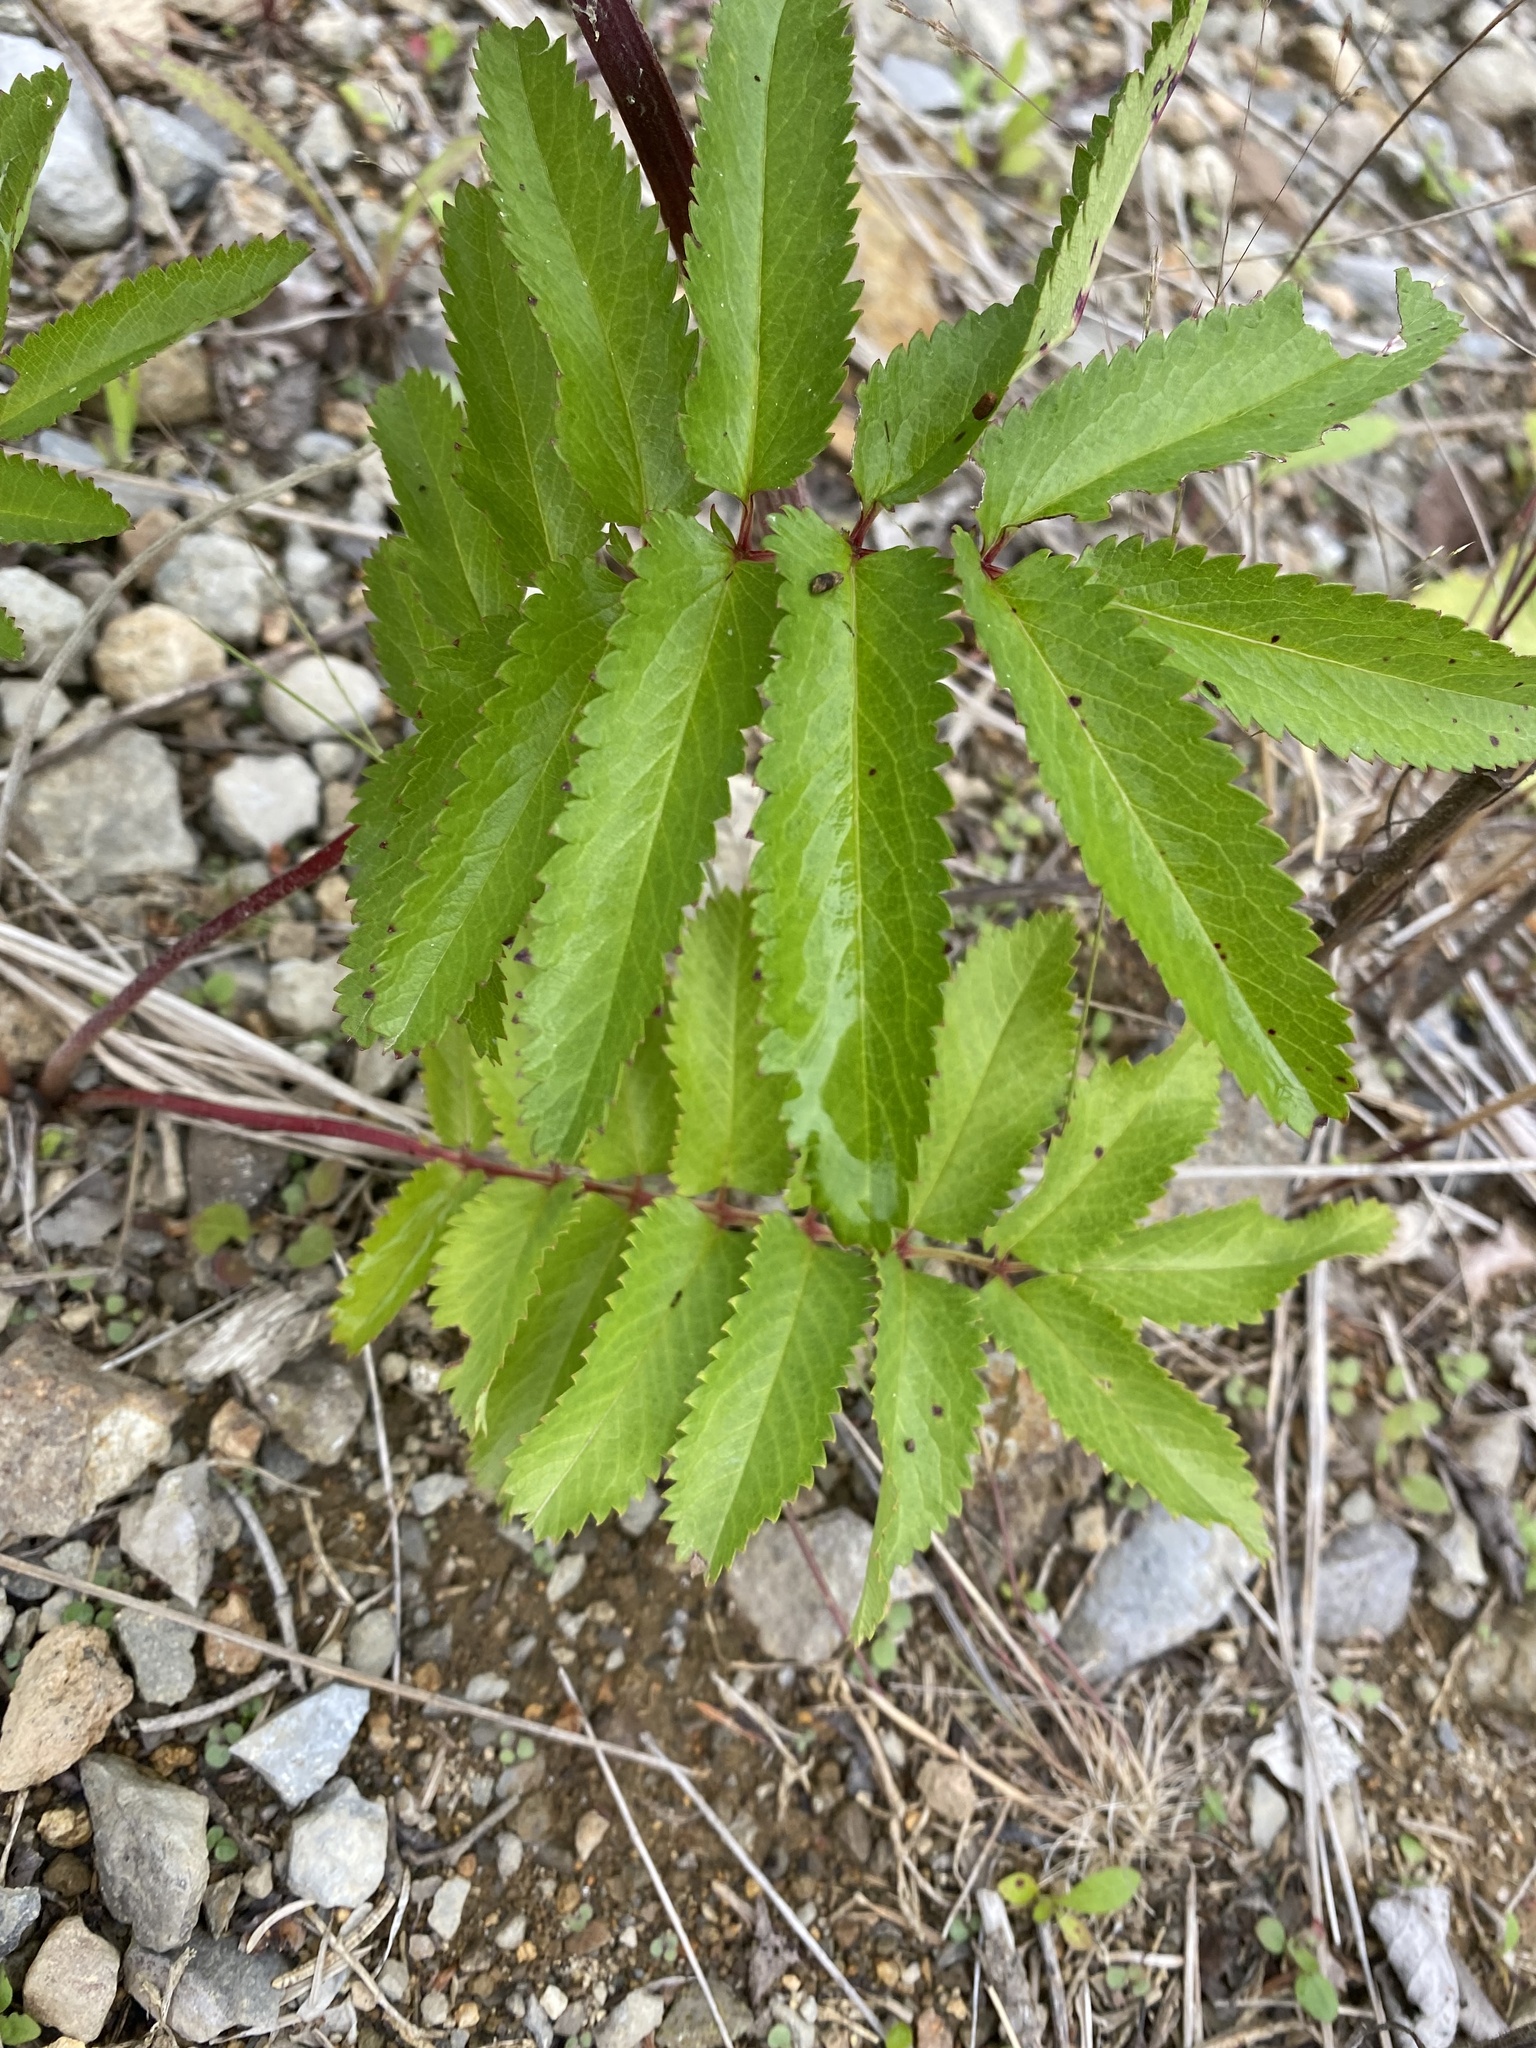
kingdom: Plantae
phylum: Tracheophyta
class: Magnoliopsida
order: Rosales
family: Rosaceae
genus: Poterium
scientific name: Poterium tenuifolium
